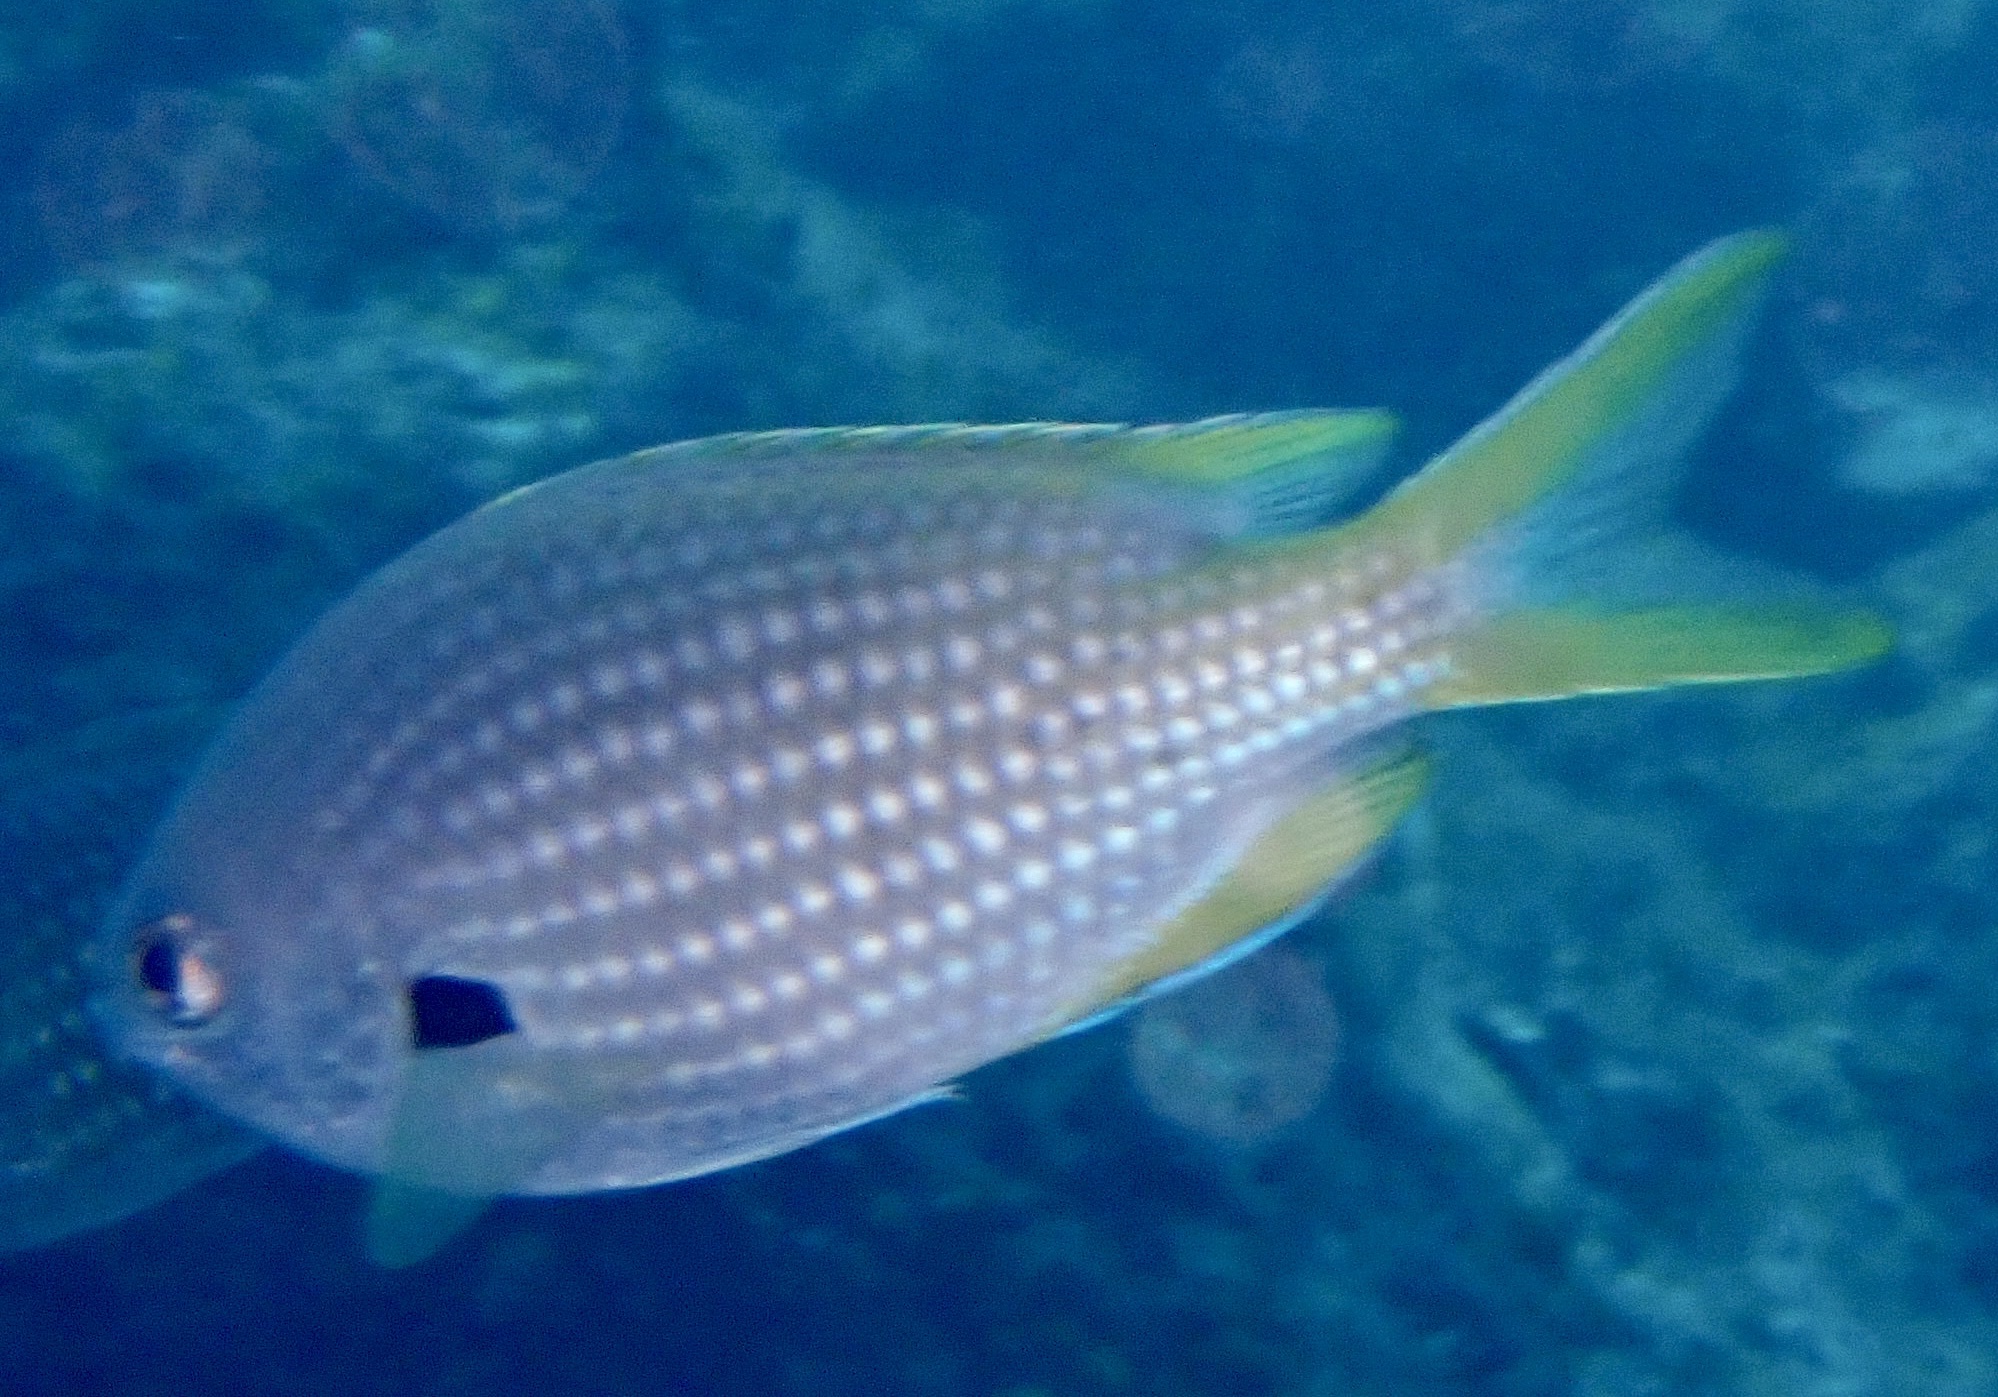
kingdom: Animalia
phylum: Chordata
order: Perciformes
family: Pomacentridae
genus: Chromis
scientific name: Chromis lubbocki
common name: Lubbock's chromis
